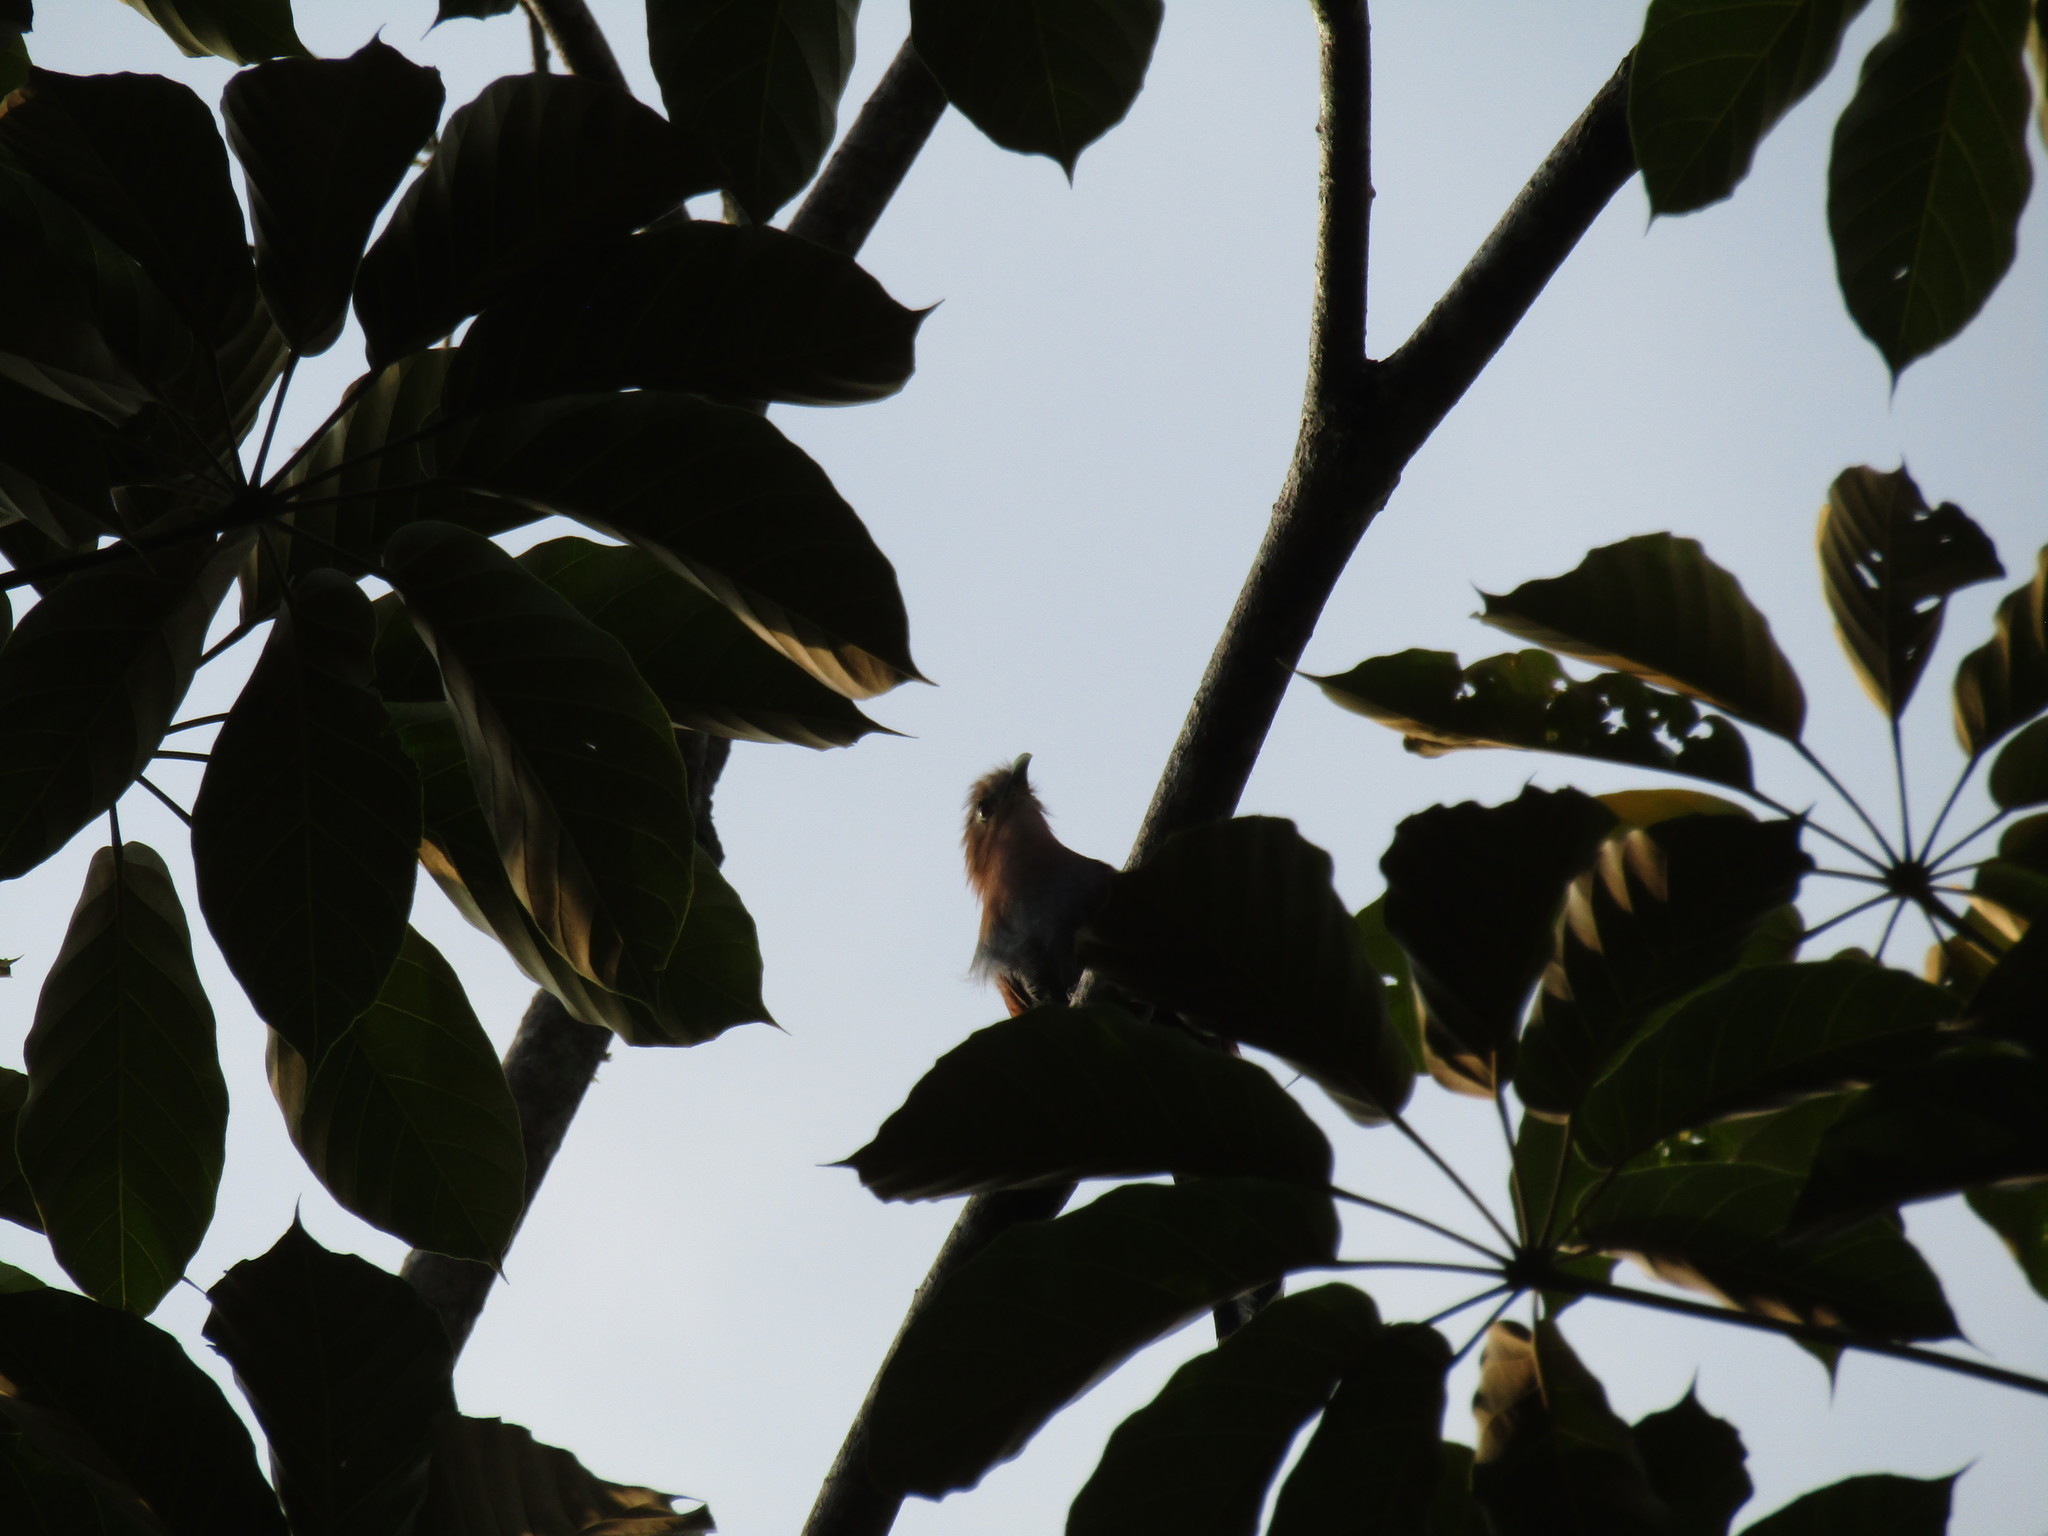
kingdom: Animalia
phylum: Chordata
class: Aves
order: Cuculiformes
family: Cuculidae
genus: Piaya
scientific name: Piaya cayana
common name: Squirrel cuckoo
